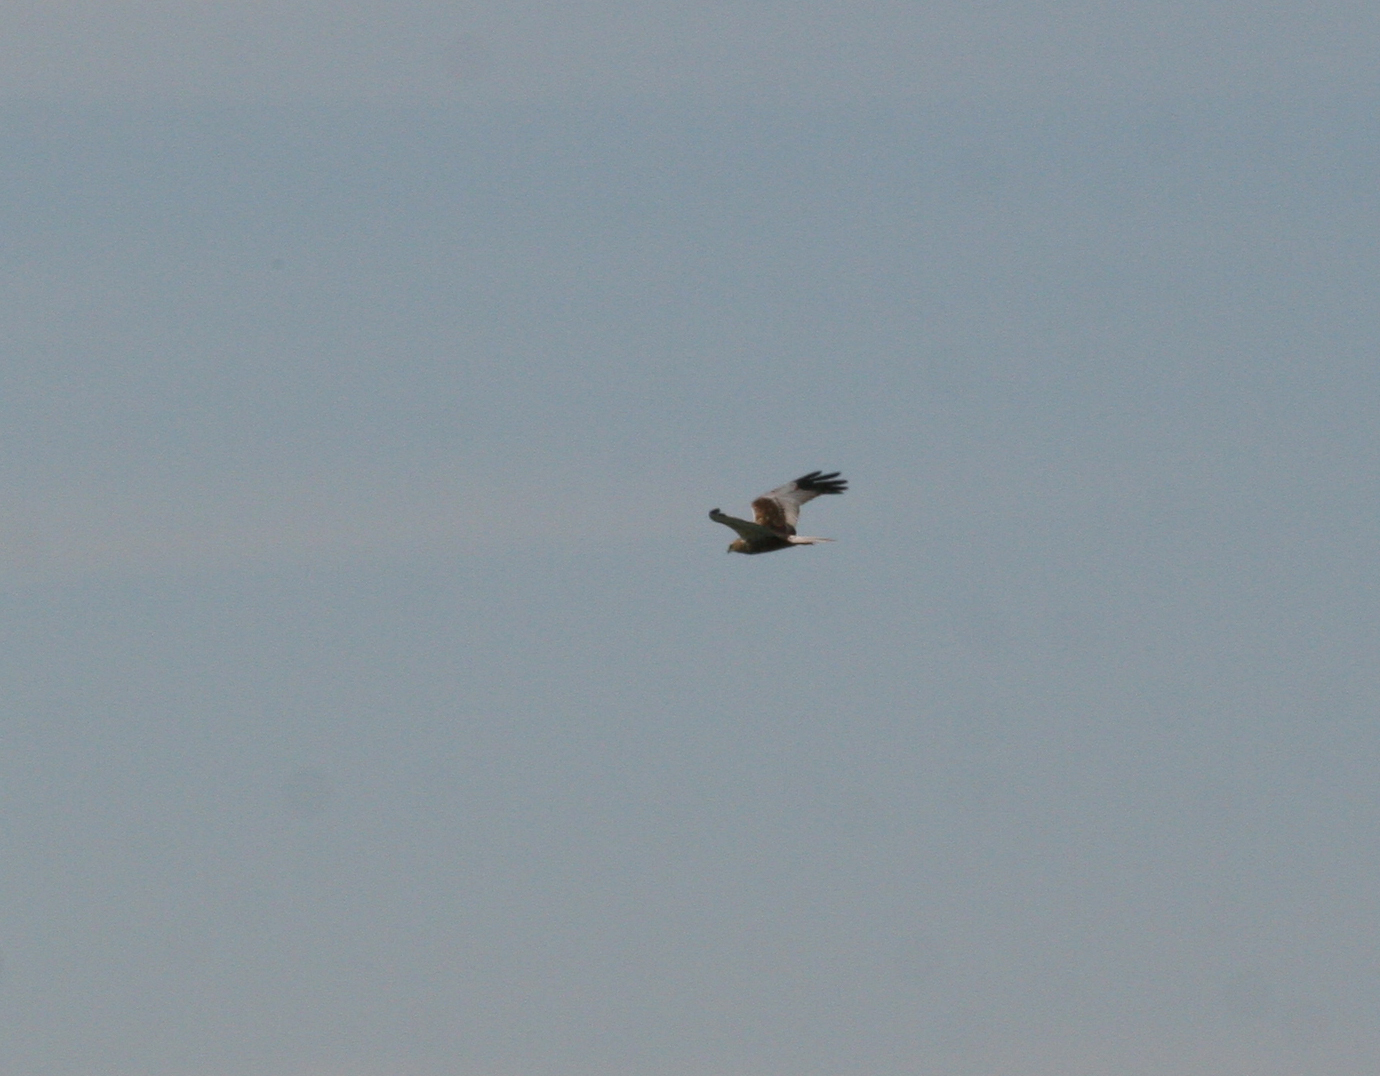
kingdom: Animalia
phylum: Chordata
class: Aves
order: Accipitriformes
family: Accipitridae
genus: Circus
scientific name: Circus aeruginosus
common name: Western marsh harrier
